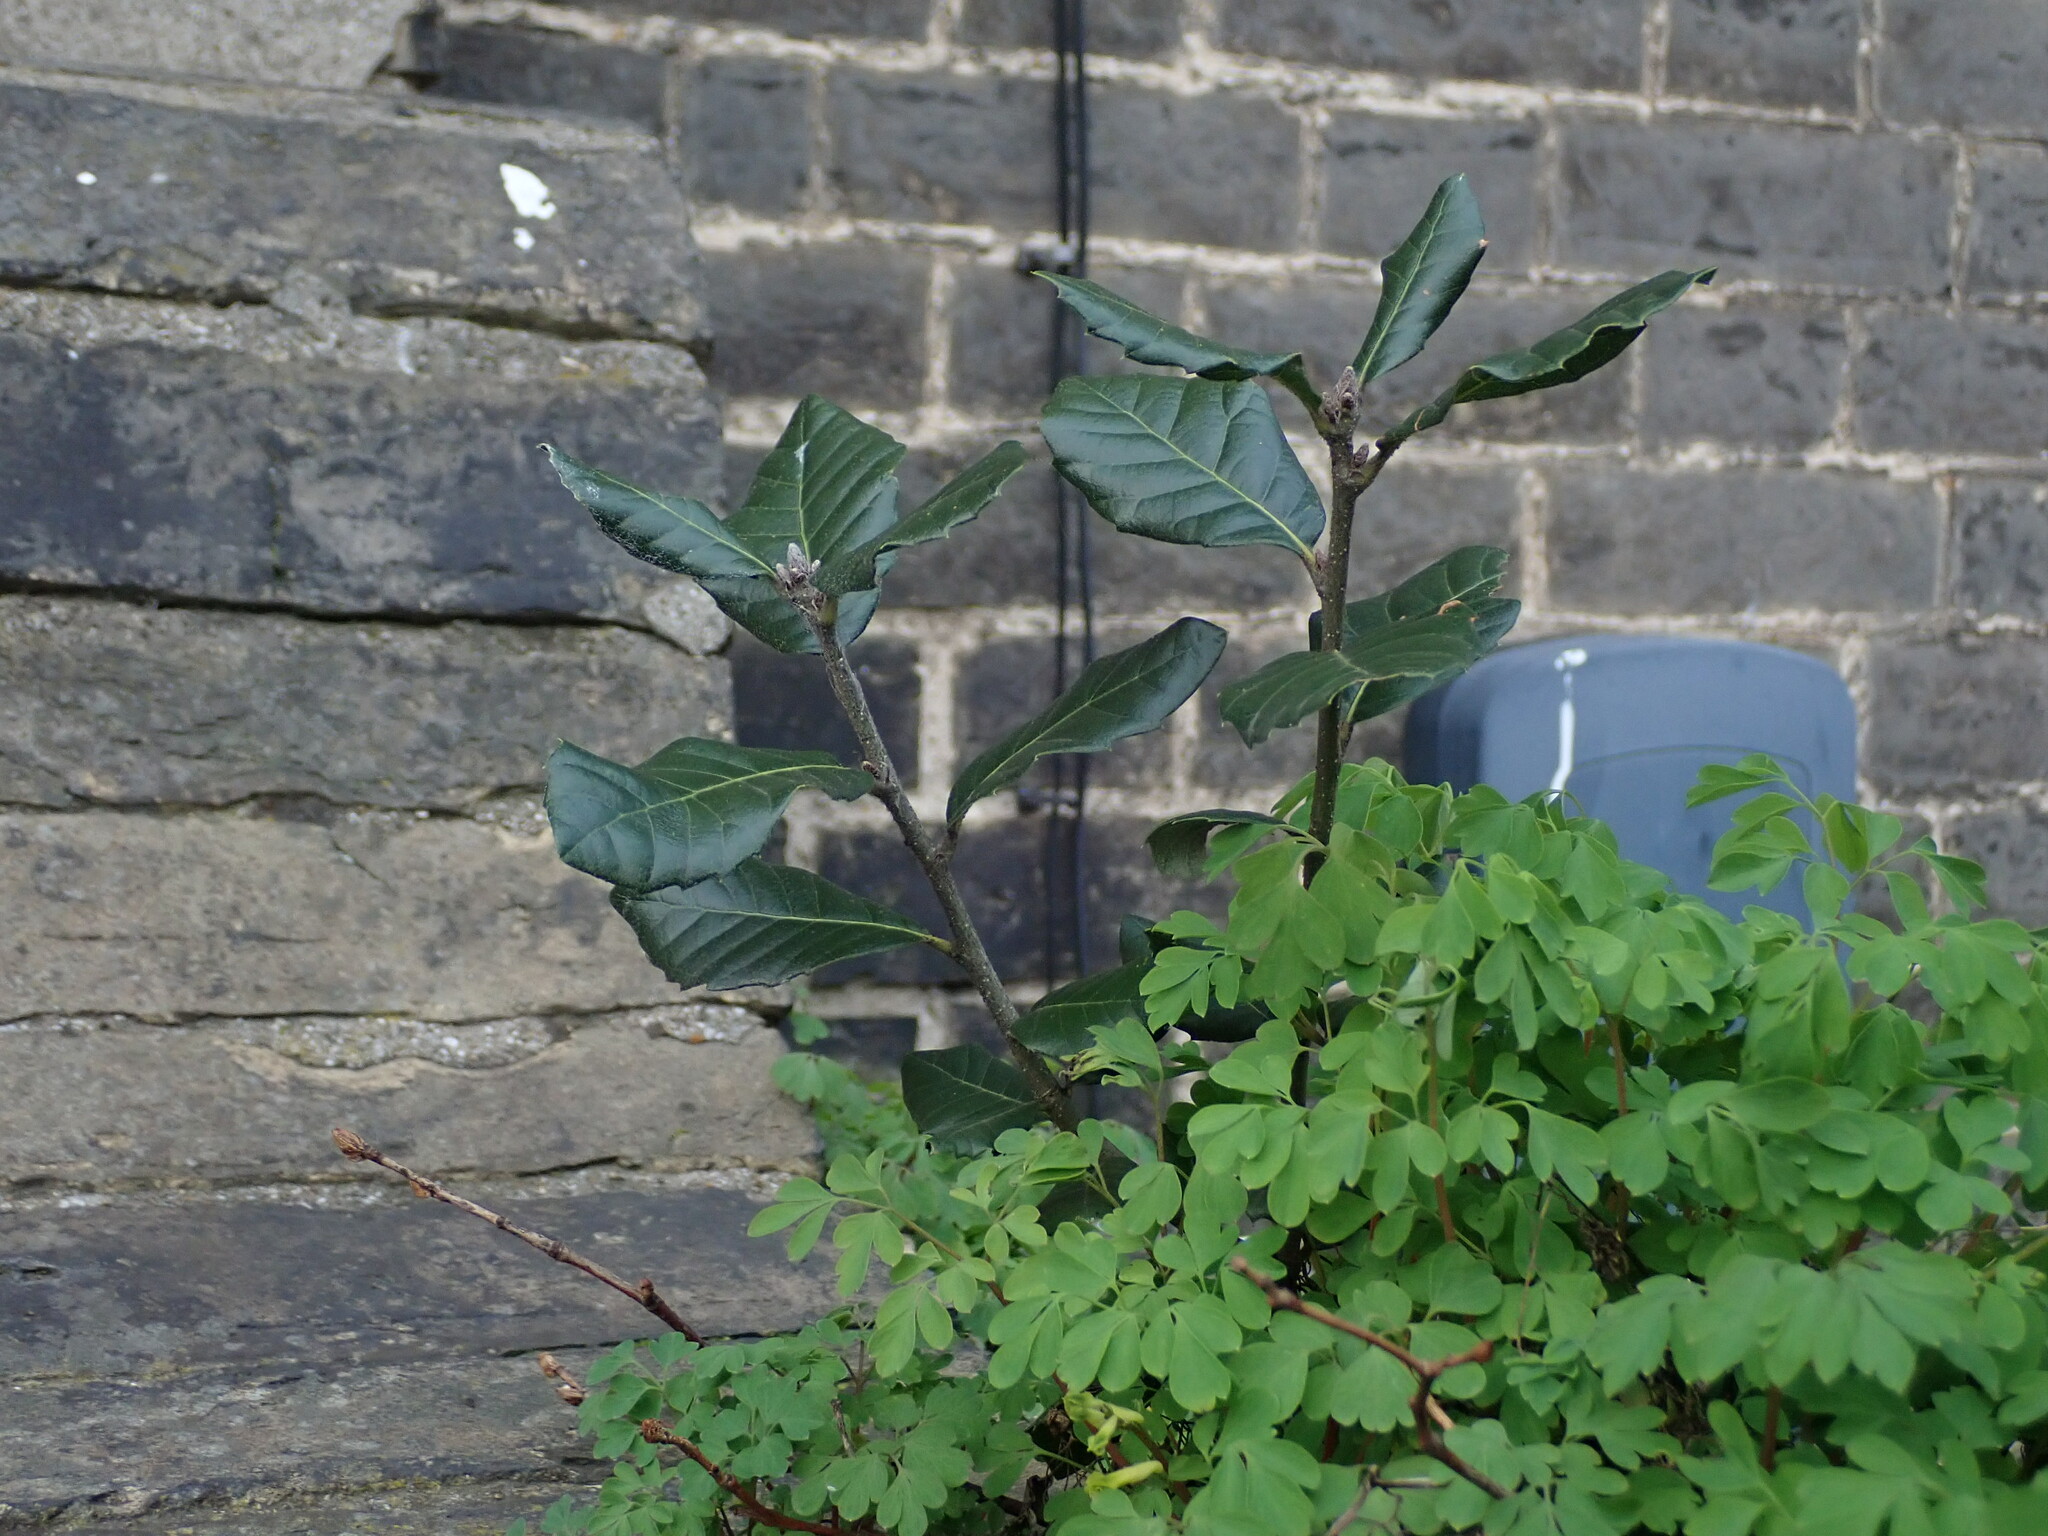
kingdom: Plantae
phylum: Tracheophyta
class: Magnoliopsida
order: Fagales
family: Fagaceae
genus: Quercus
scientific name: Quercus ilex
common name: Evergreen oak
